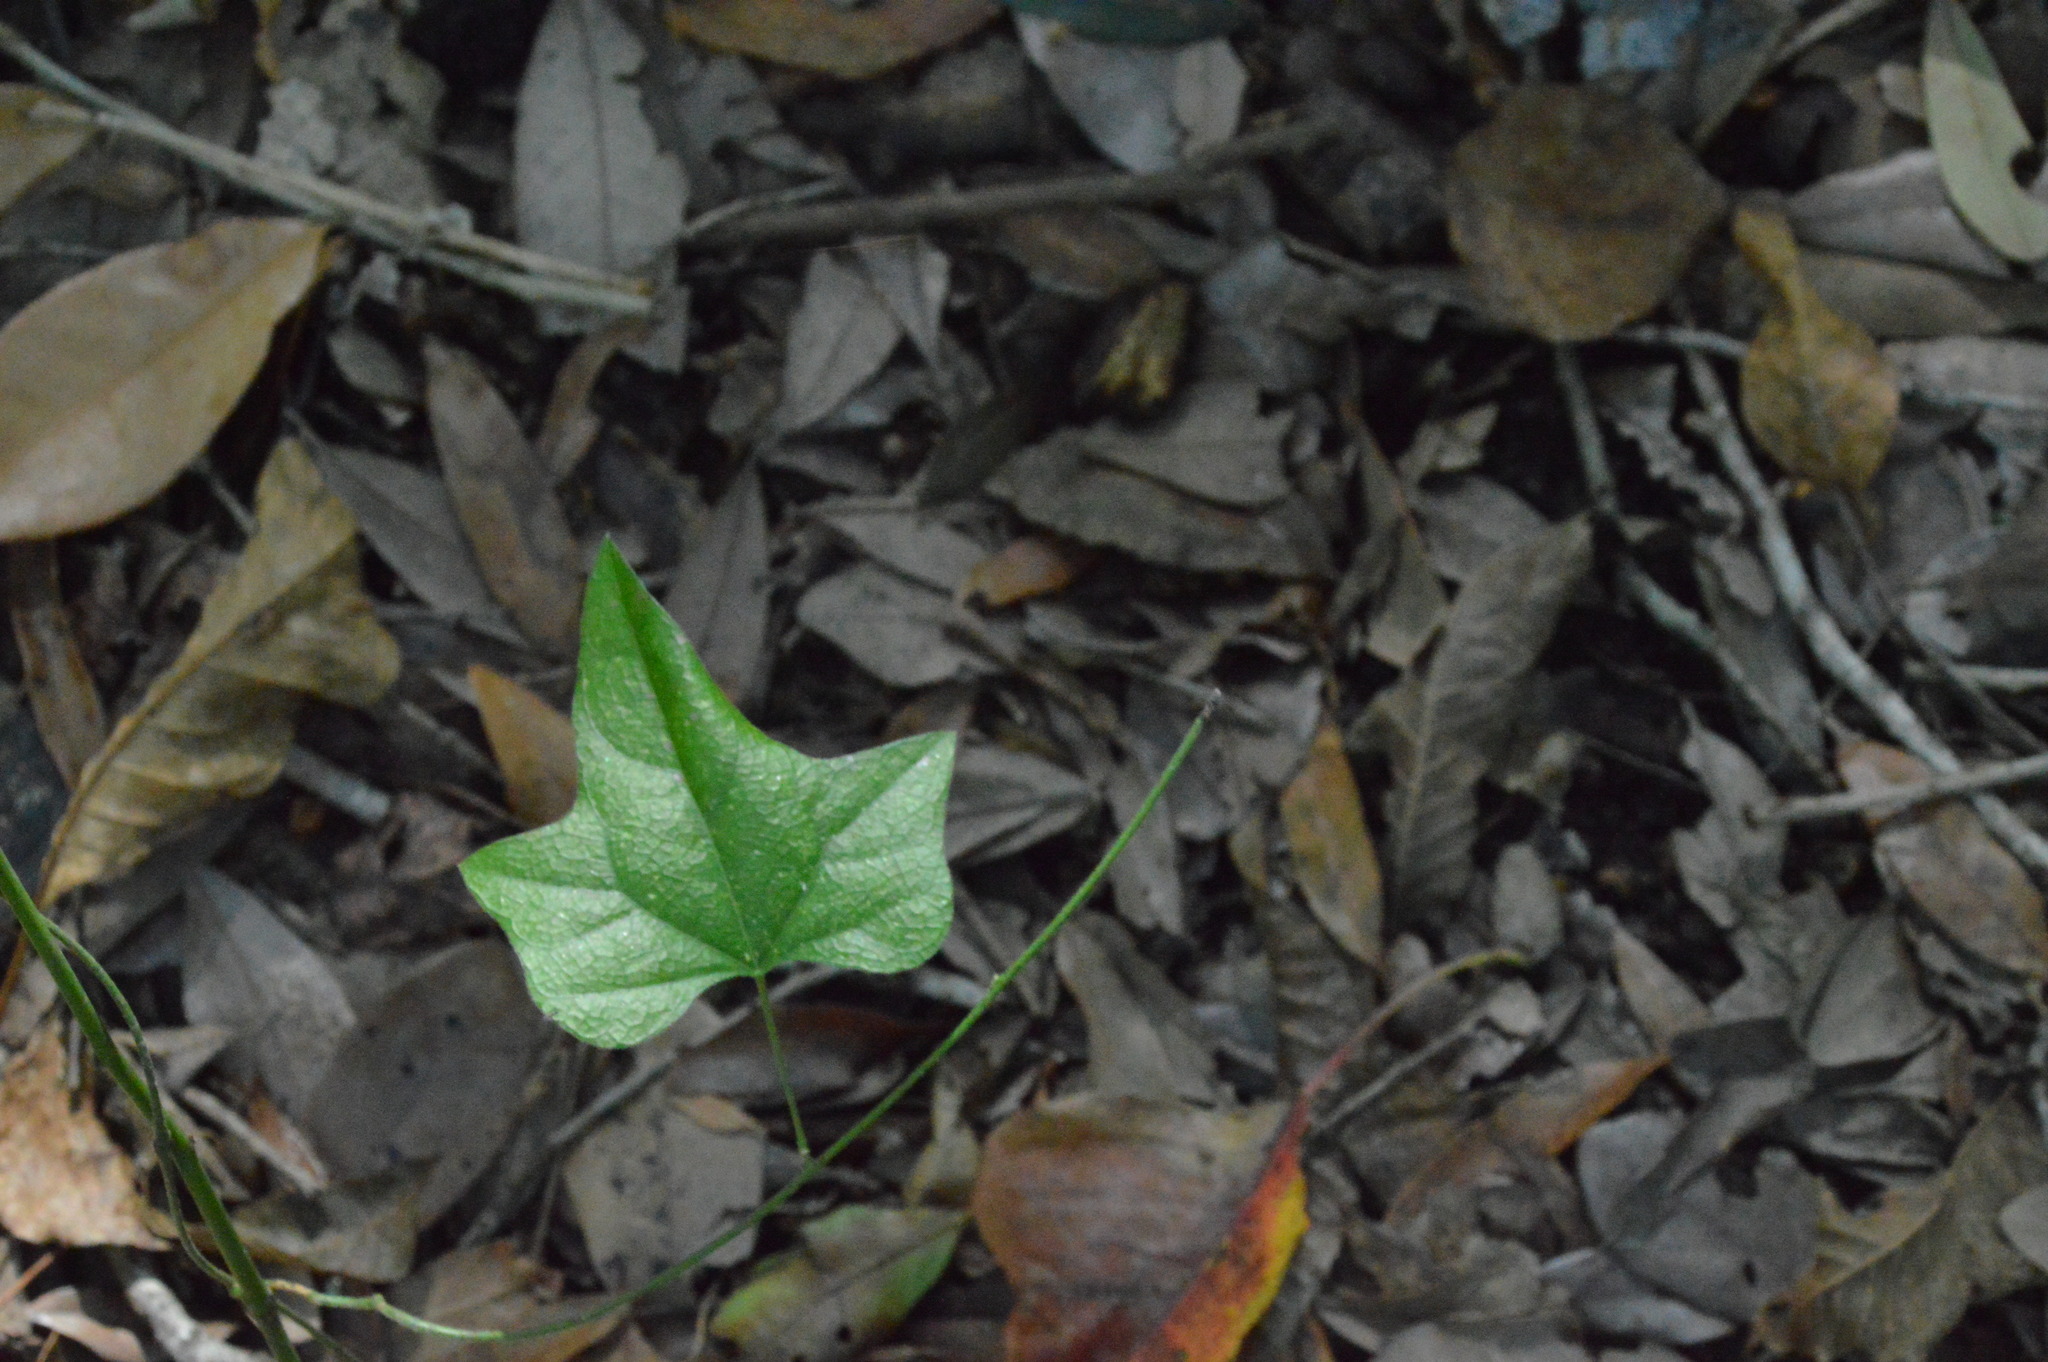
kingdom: Plantae
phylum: Tracheophyta
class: Magnoliopsida
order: Ranunculales
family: Menispermaceae
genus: Cocculus
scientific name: Cocculus carolinus
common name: Carolina moonseed
